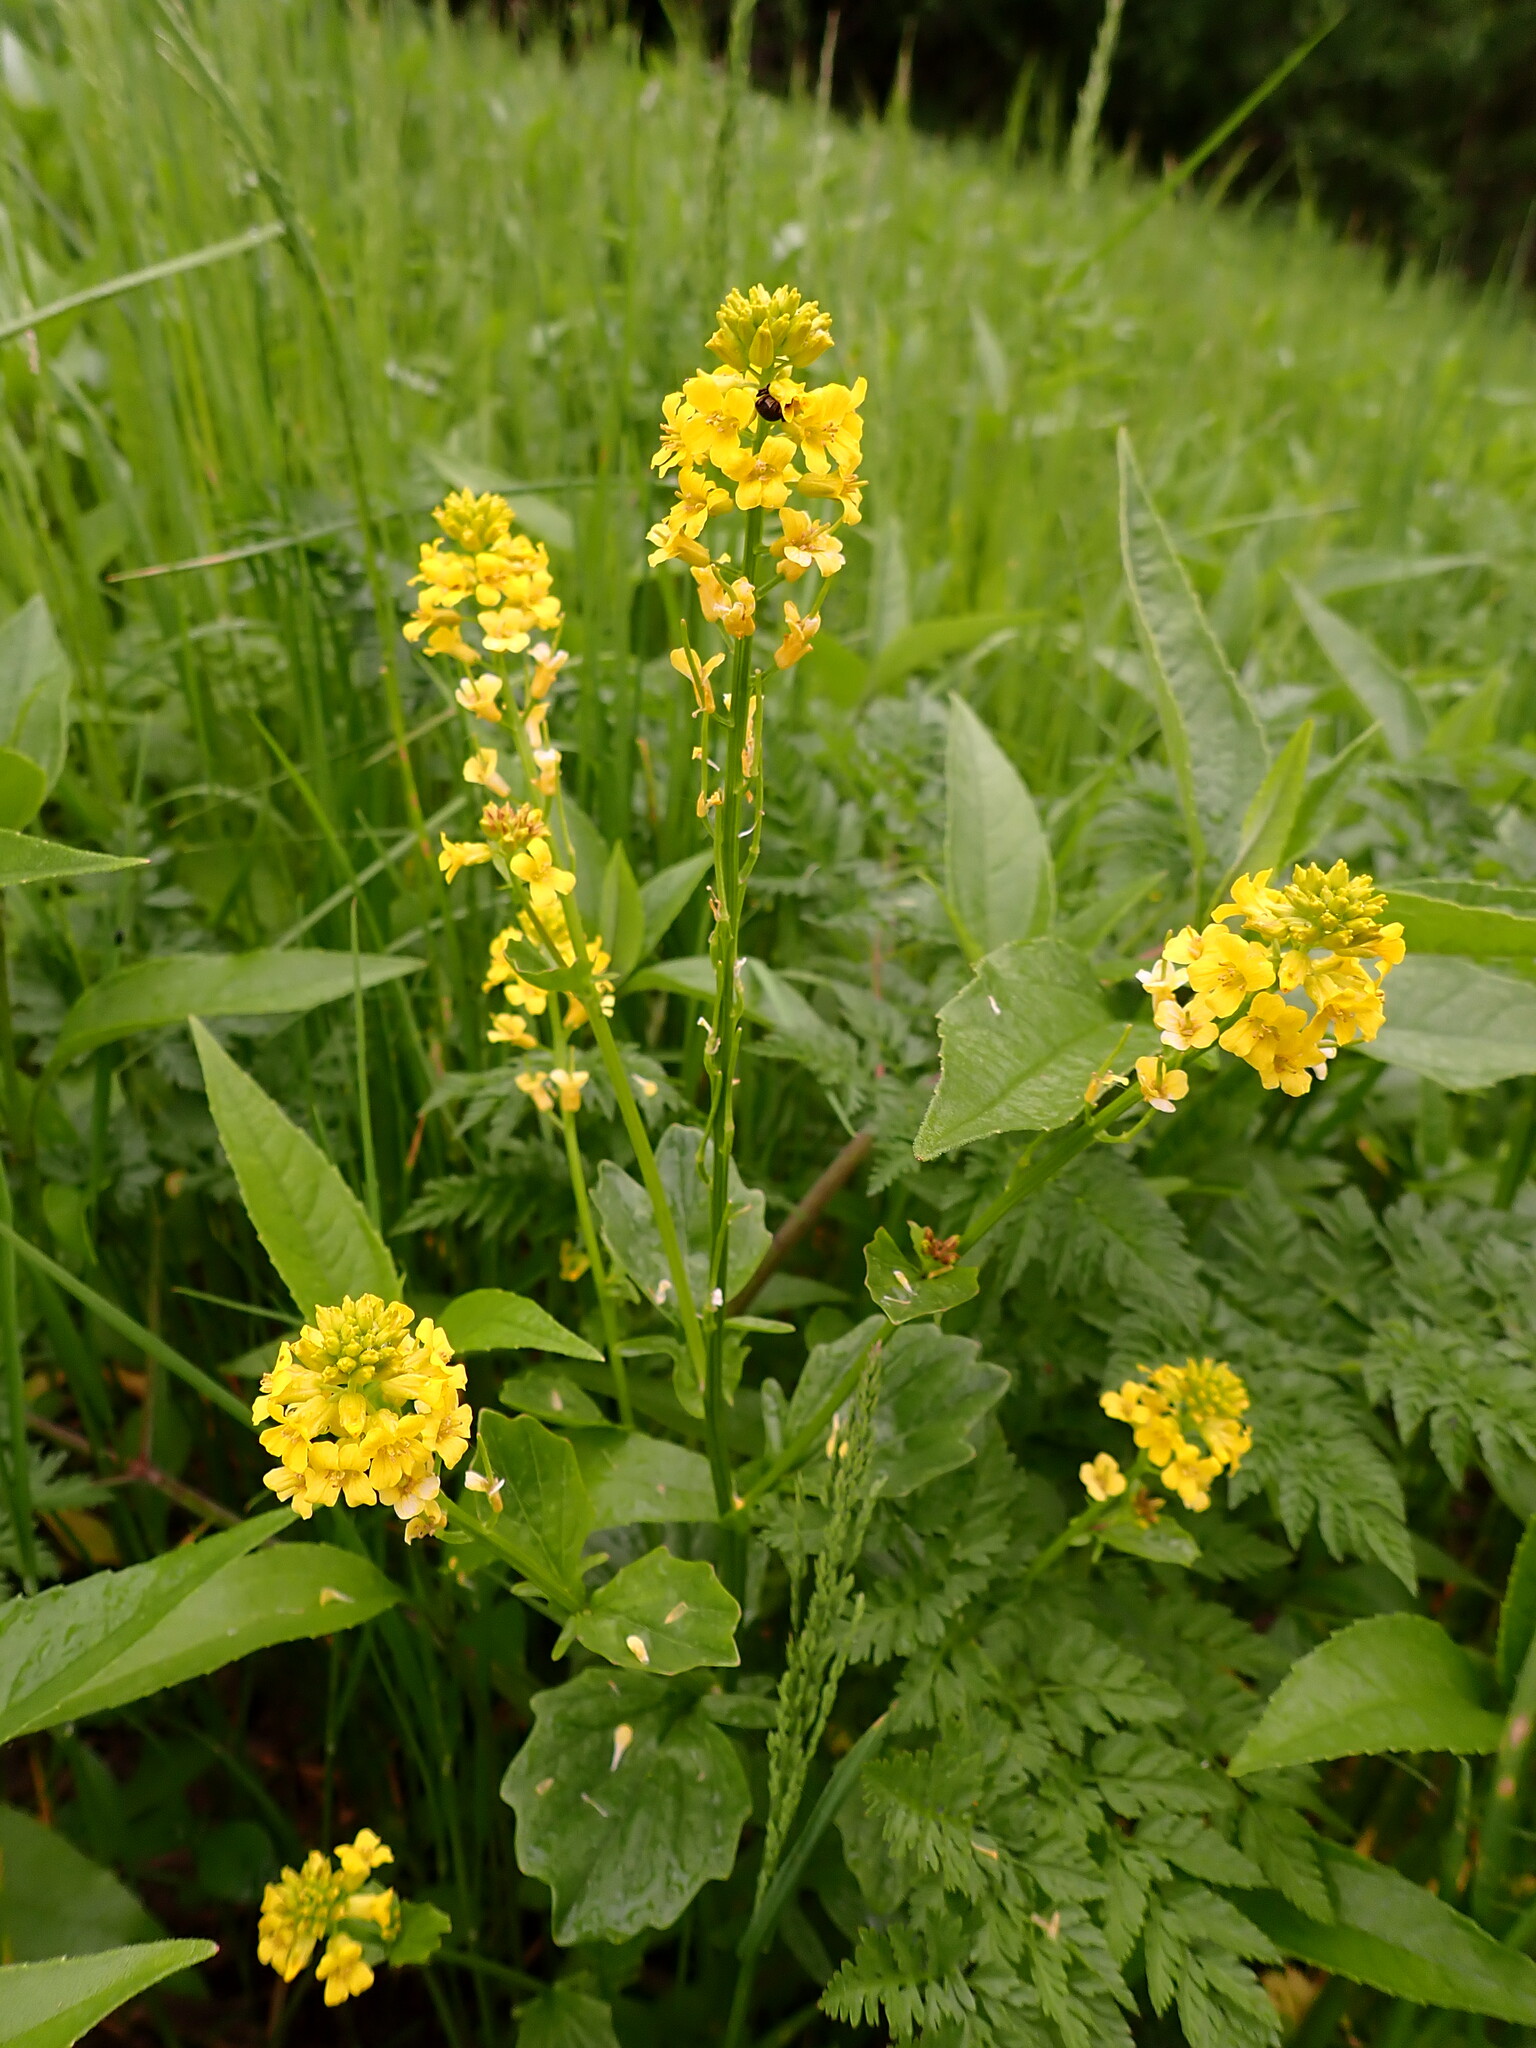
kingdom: Plantae
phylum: Tracheophyta
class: Magnoliopsida
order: Brassicales
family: Brassicaceae
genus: Barbarea
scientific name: Barbarea vulgaris
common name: Cressy-greens
